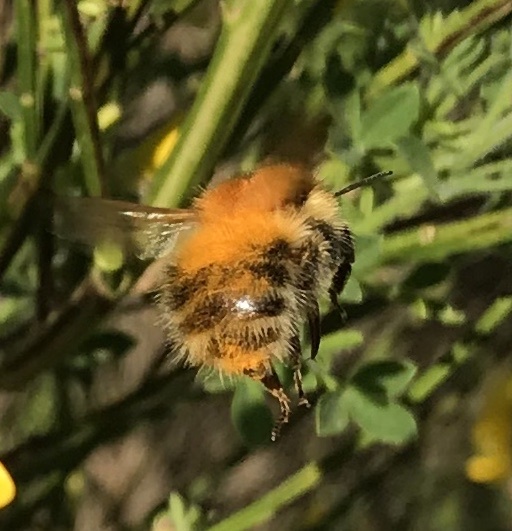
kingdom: Animalia
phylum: Arthropoda
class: Insecta
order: Hymenoptera
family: Apidae
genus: Bombus
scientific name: Bombus pascuorum
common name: Common carder bee
